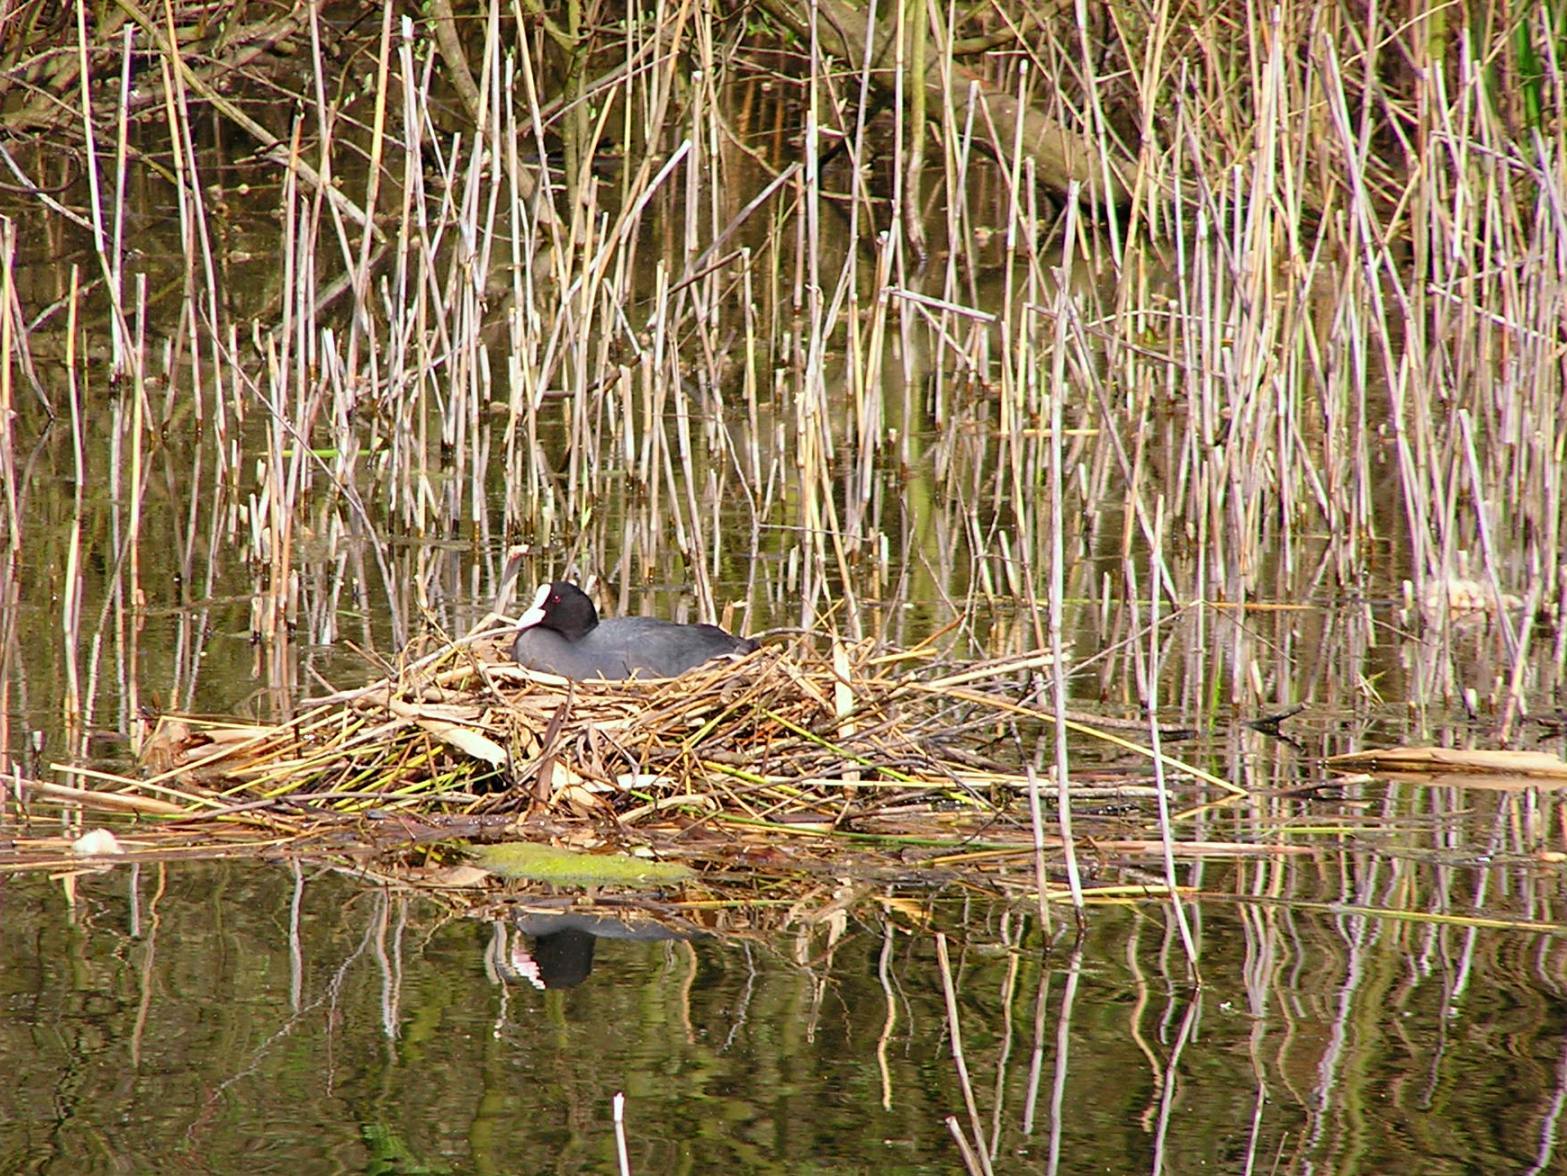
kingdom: Animalia
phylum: Chordata
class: Aves
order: Gruiformes
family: Rallidae
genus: Fulica
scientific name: Fulica atra
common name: Eurasian coot
